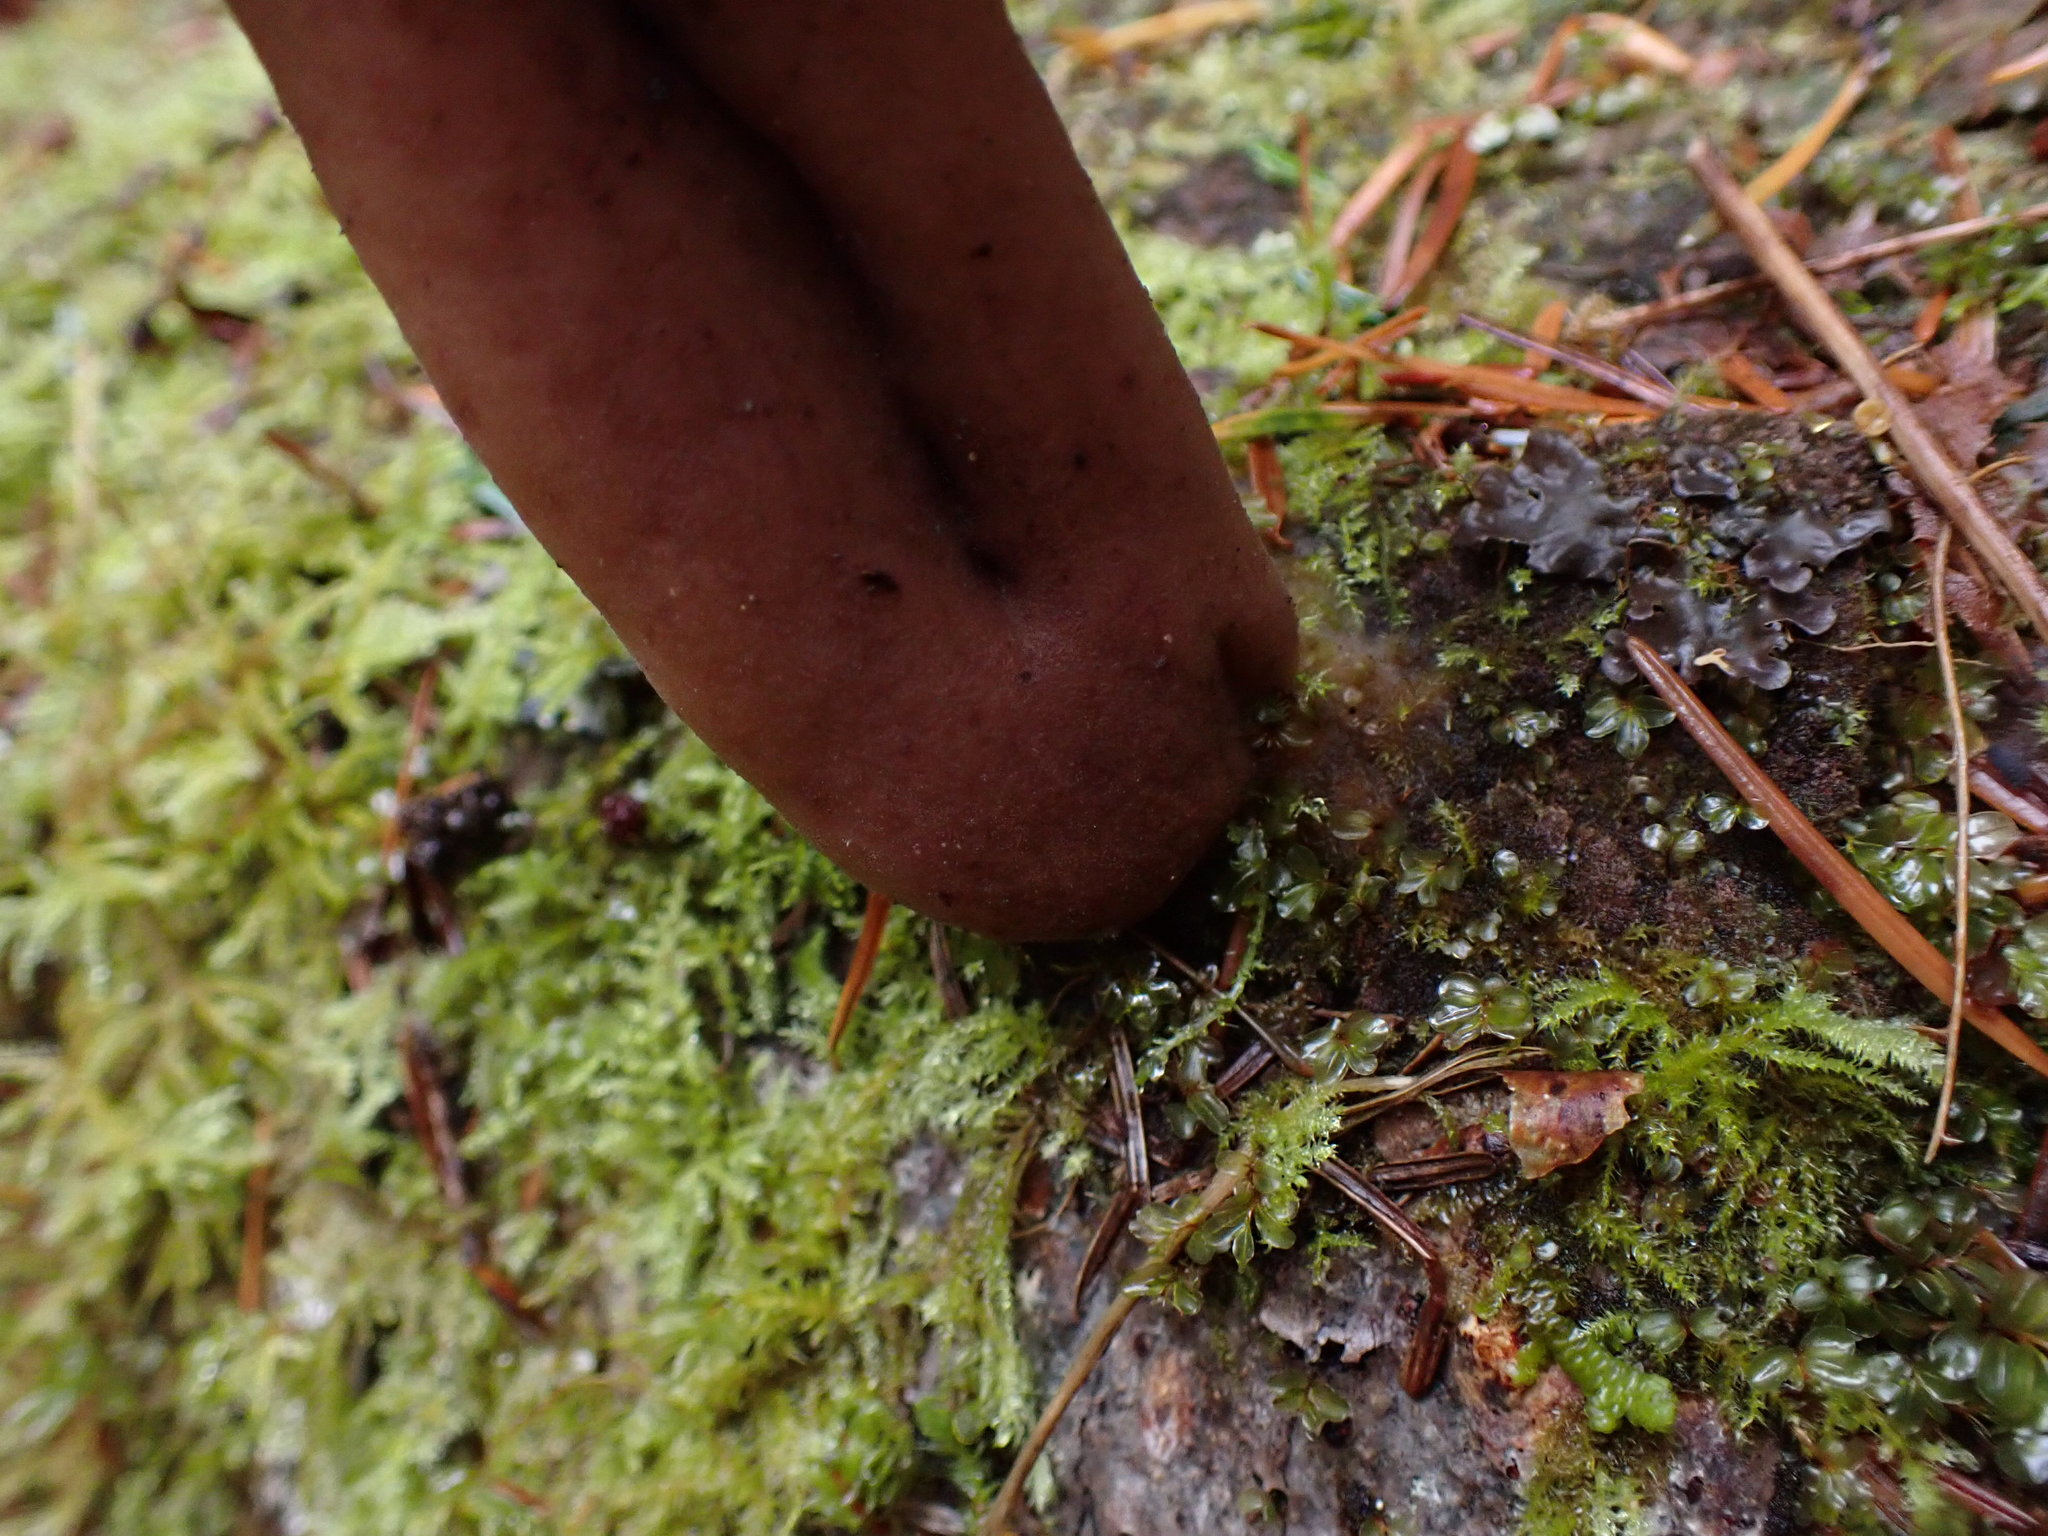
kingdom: Fungi
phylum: Ascomycota
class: Pezizomycetes
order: Pezizales
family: Discinaceae
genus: Gyromitra
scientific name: Gyromitra infula
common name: Pouched false morel
